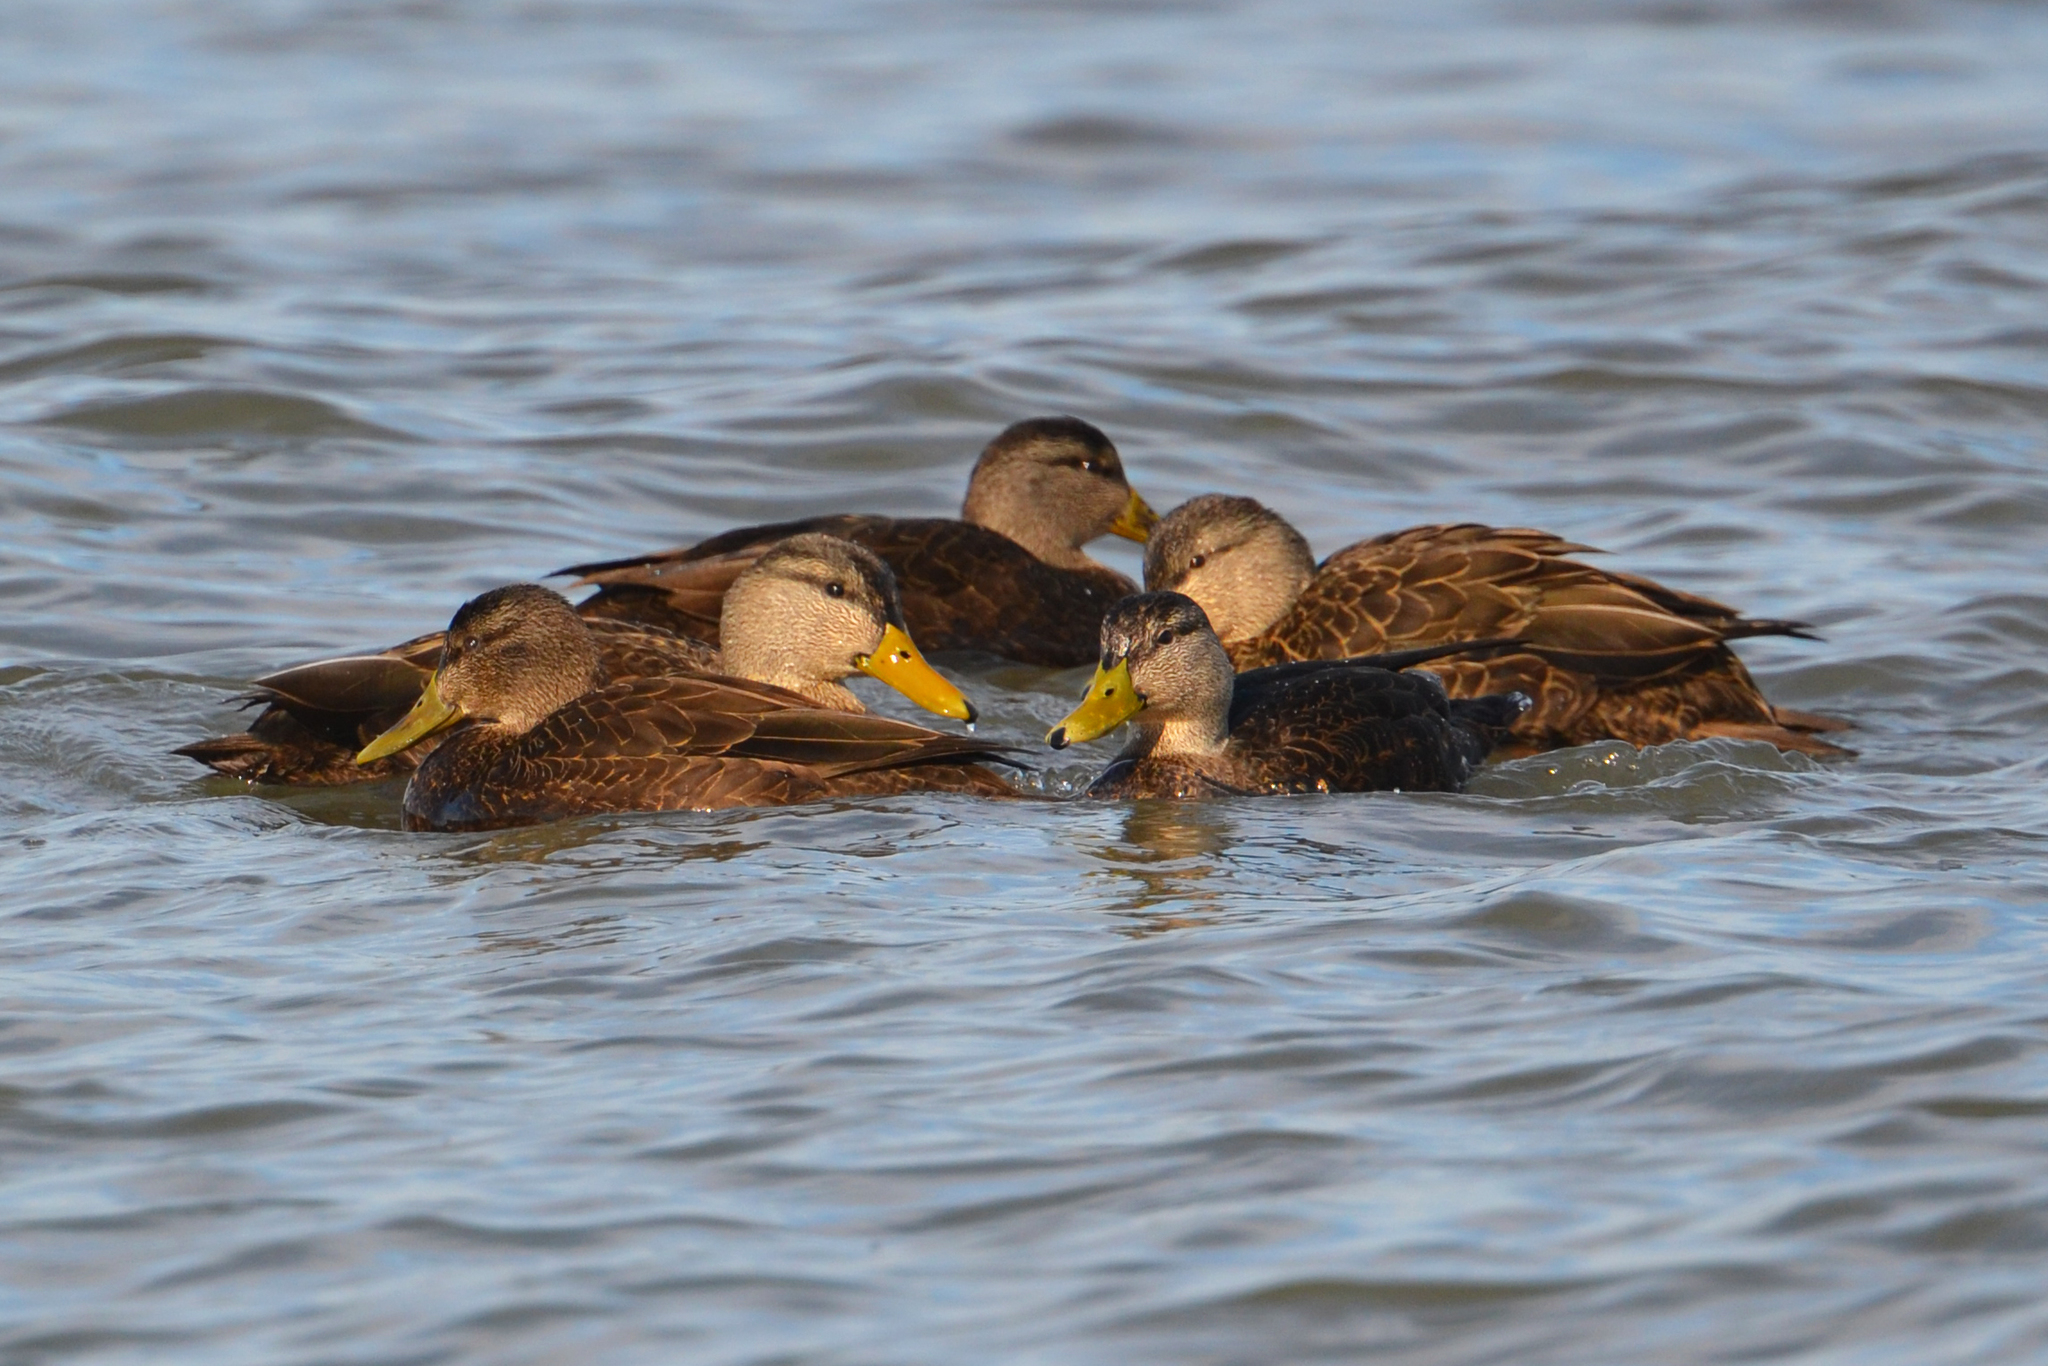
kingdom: Animalia
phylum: Chordata
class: Aves
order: Anseriformes
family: Anatidae
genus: Anas
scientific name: Anas rubripes
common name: American black duck
